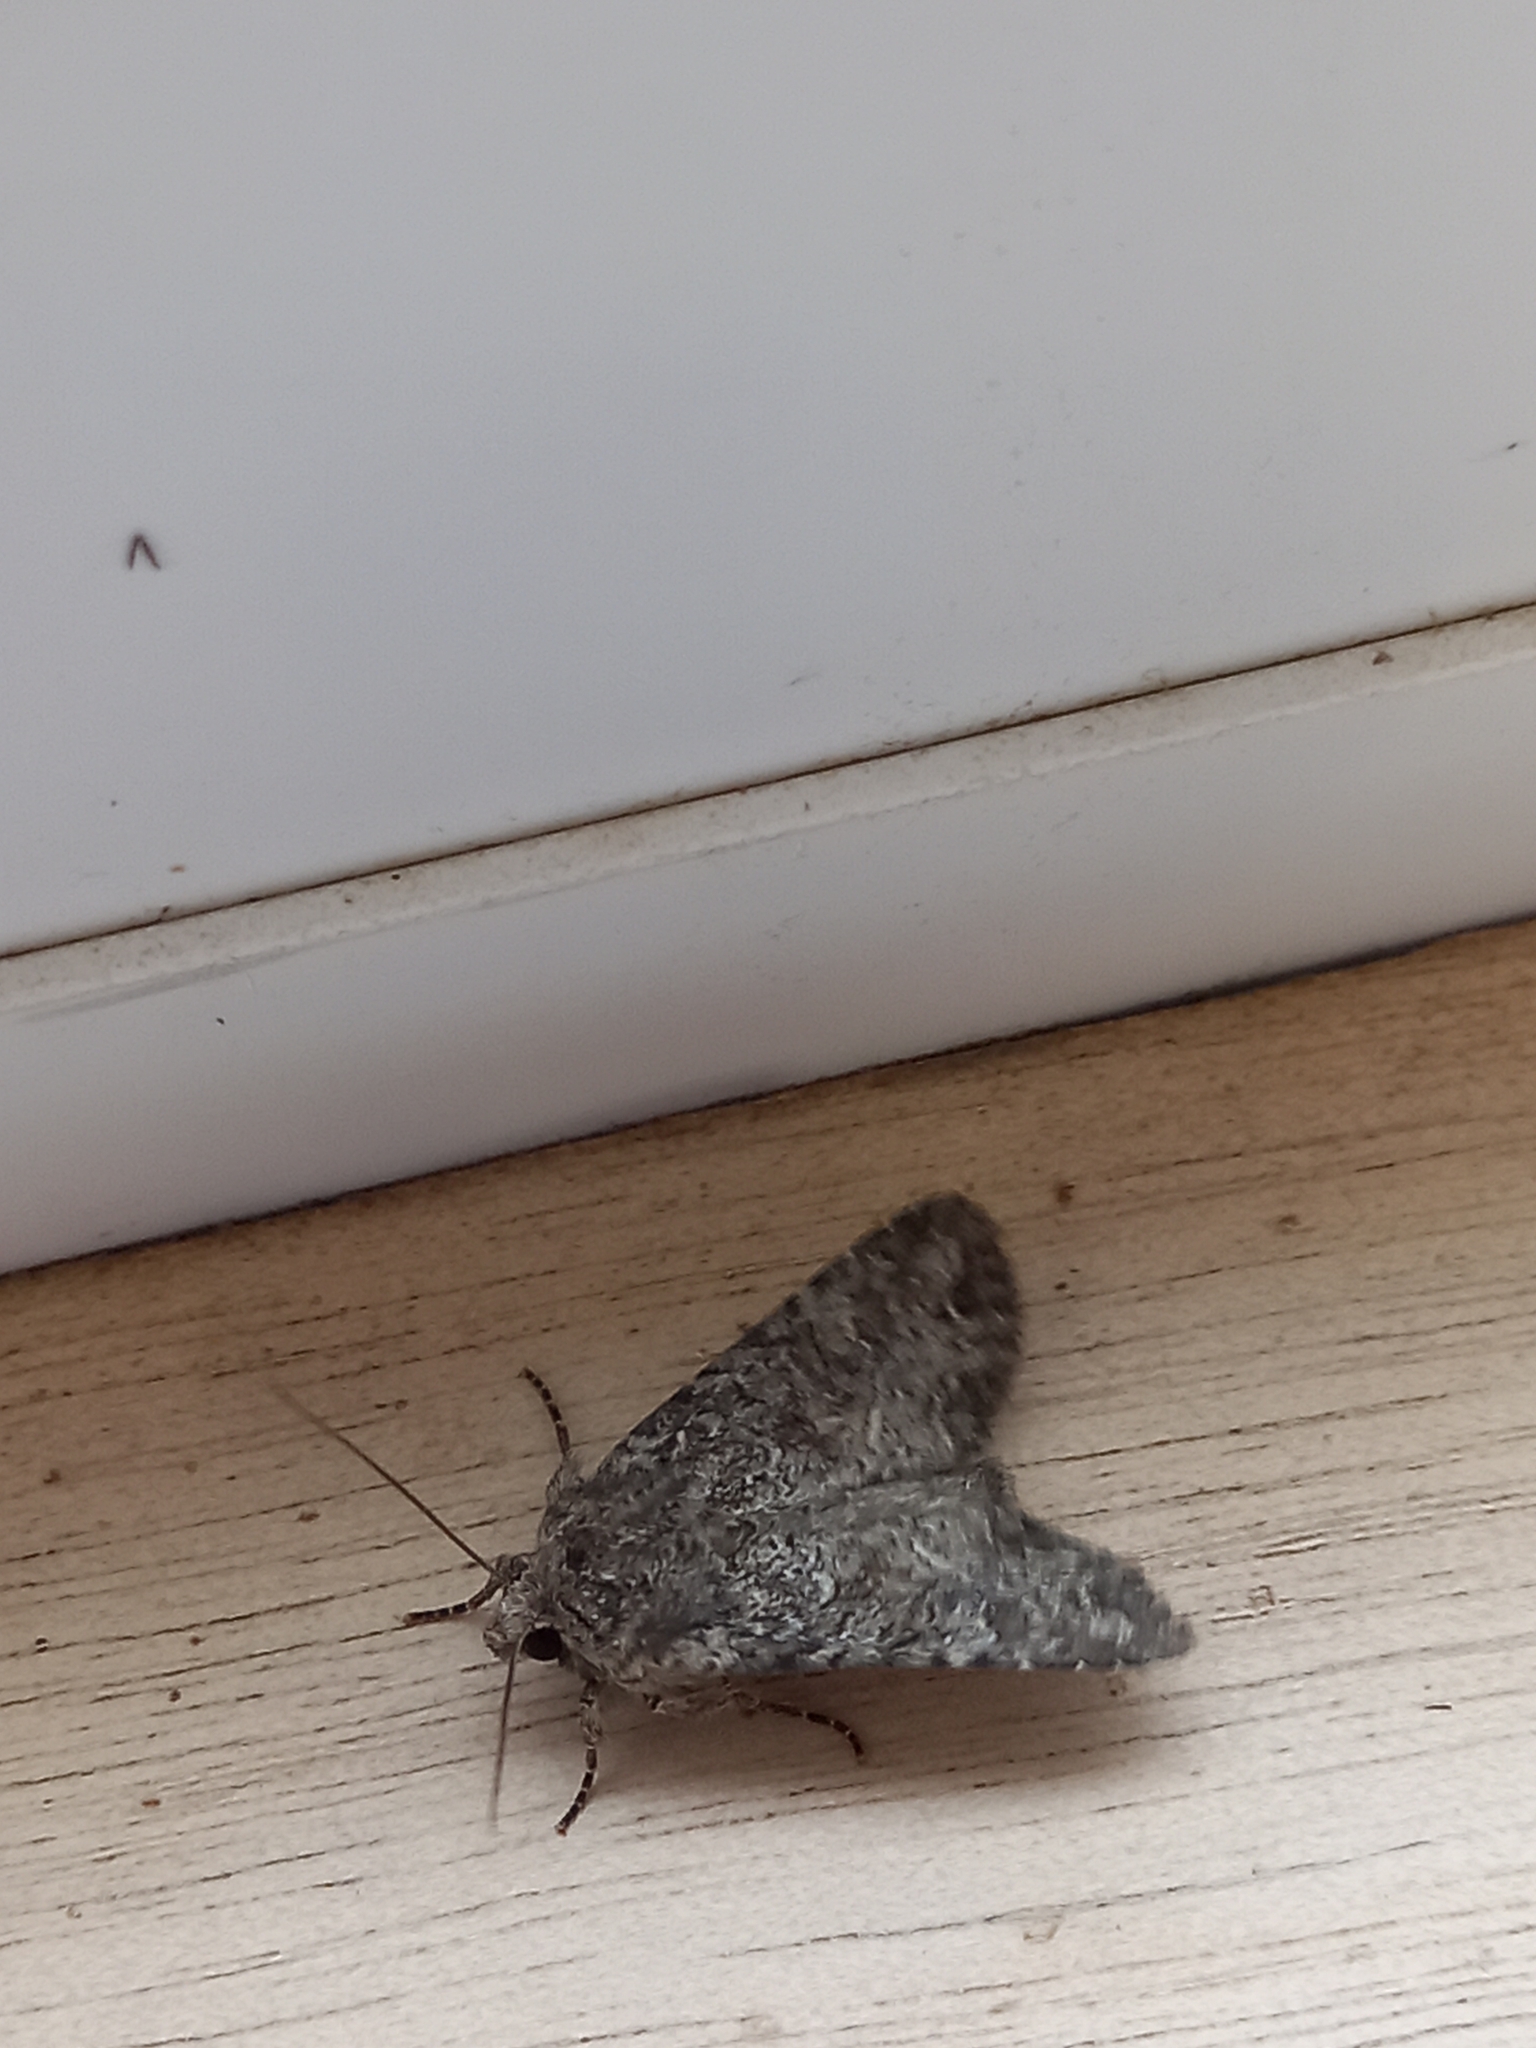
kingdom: Animalia
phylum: Arthropoda
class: Insecta
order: Lepidoptera
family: Noctuidae
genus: Anarta
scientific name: Anarta trifolii
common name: Clover cutworm moth
